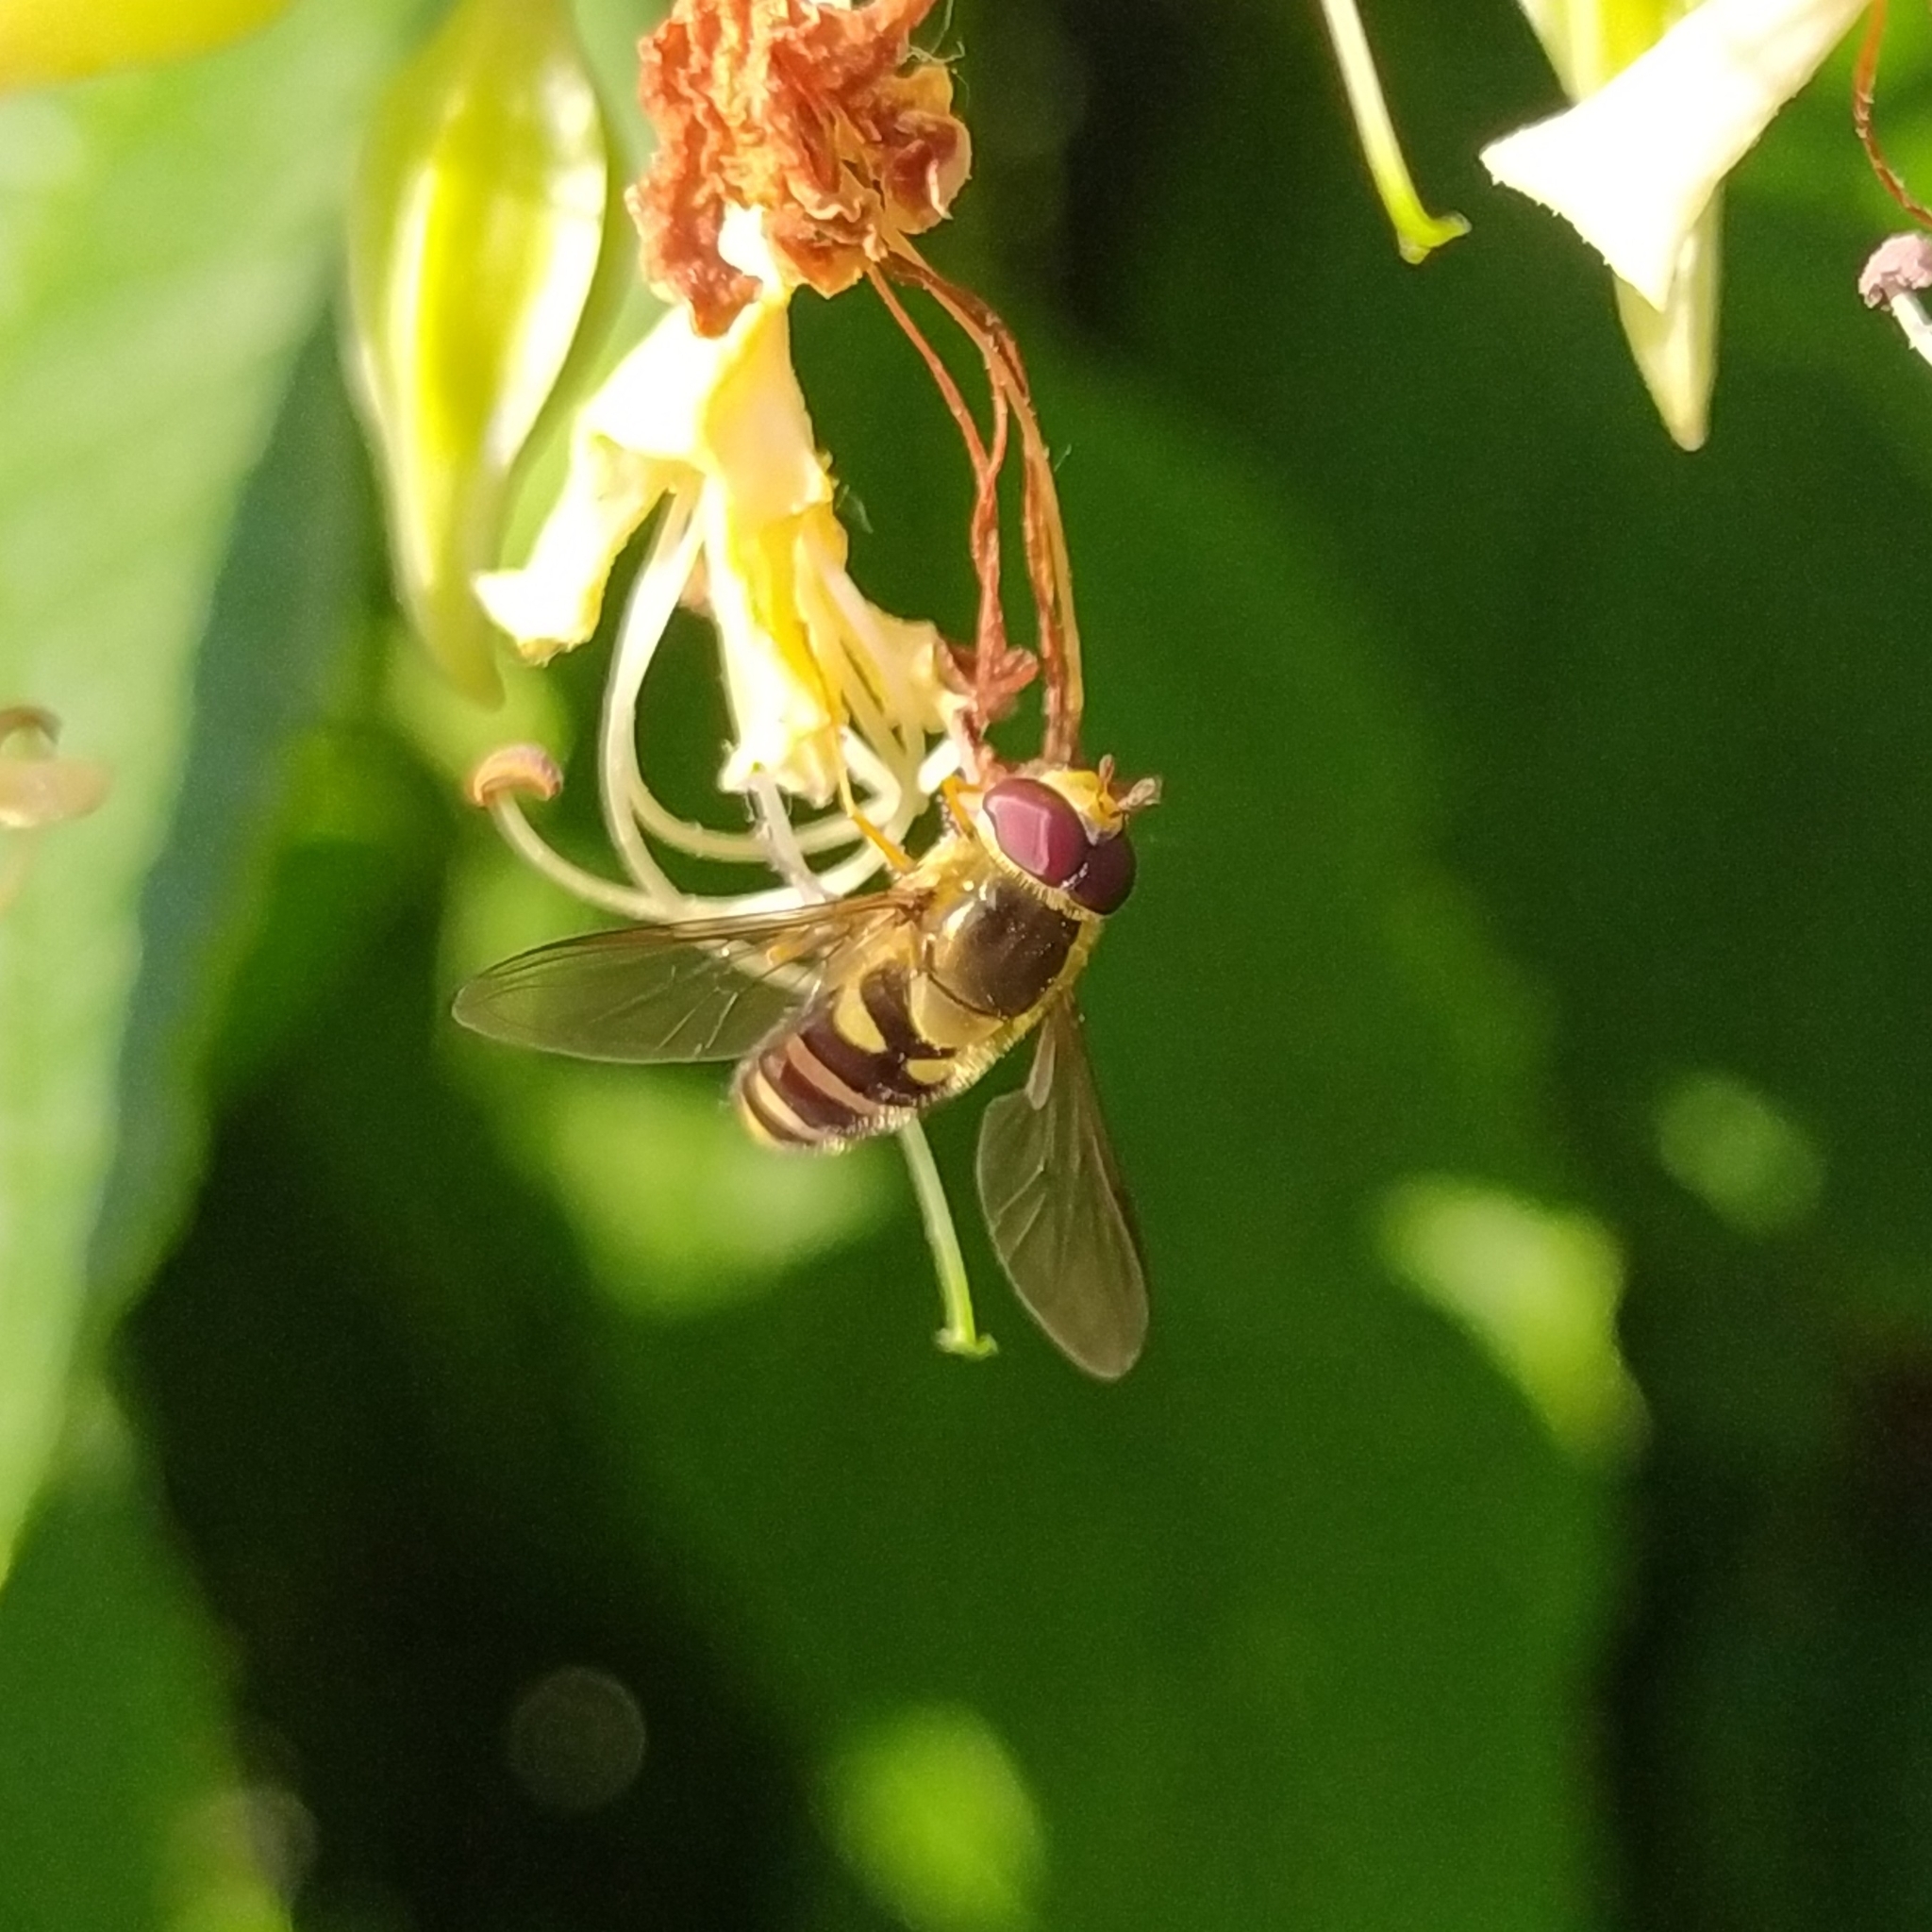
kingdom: Animalia
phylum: Arthropoda
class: Insecta
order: Diptera
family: Syrphidae
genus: Syrphus
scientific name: Syrphus opinator
